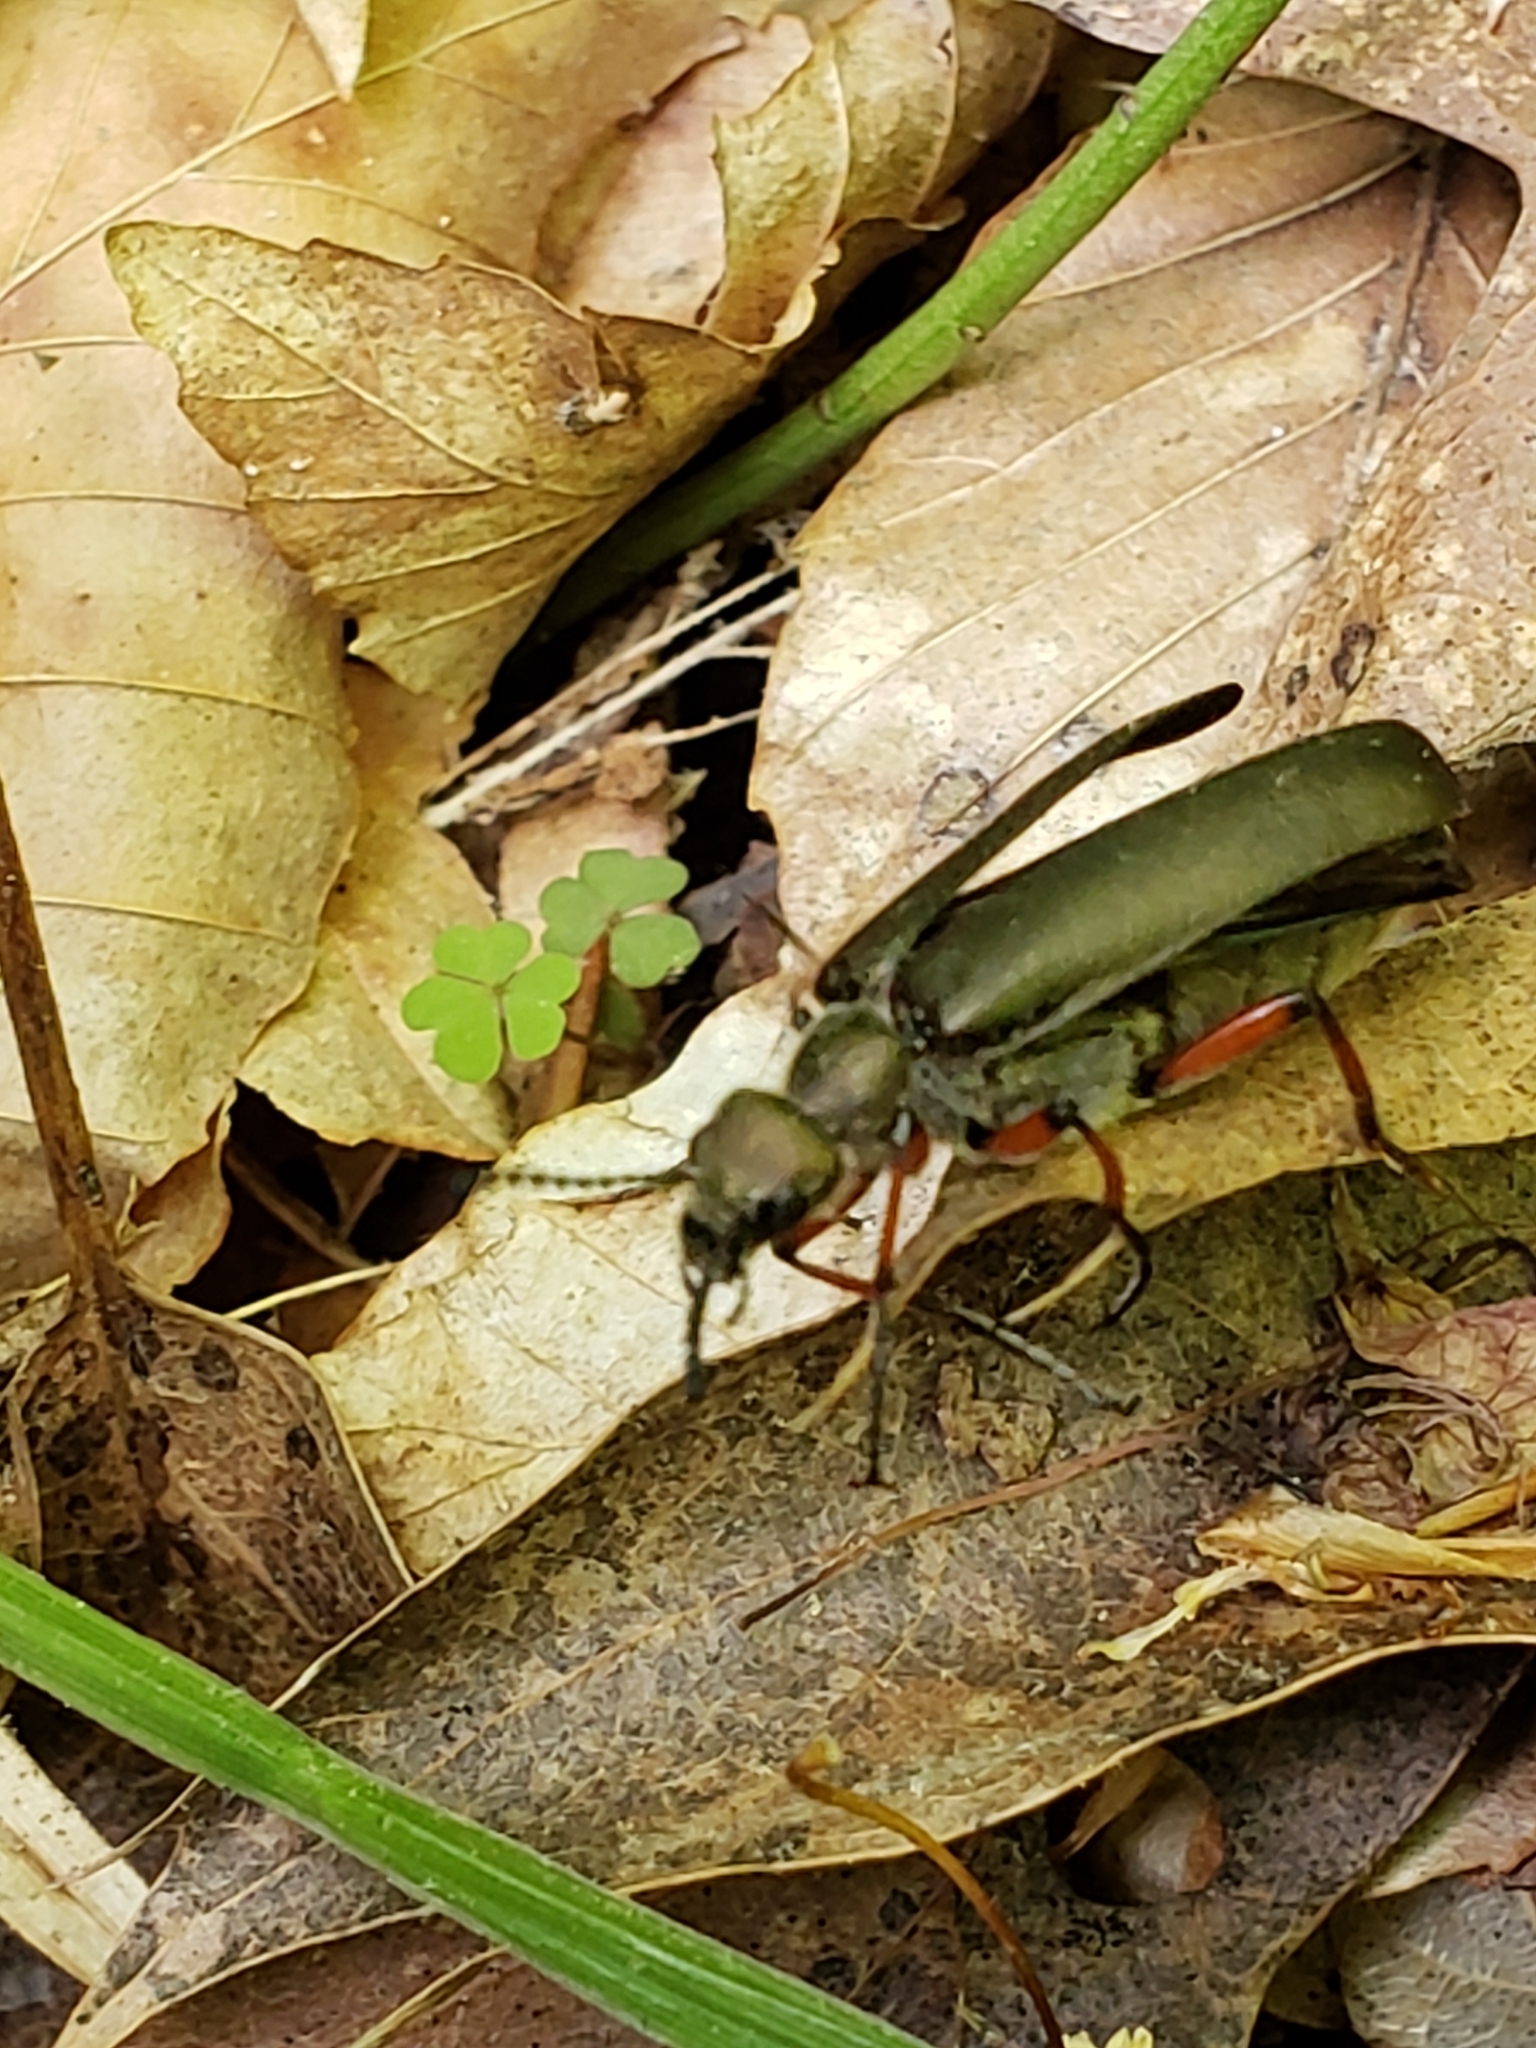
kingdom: Animalia
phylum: Arthropoda
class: Insecta
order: Coleoptera
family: Meloidae
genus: Lytta
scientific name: Lytta aenea
